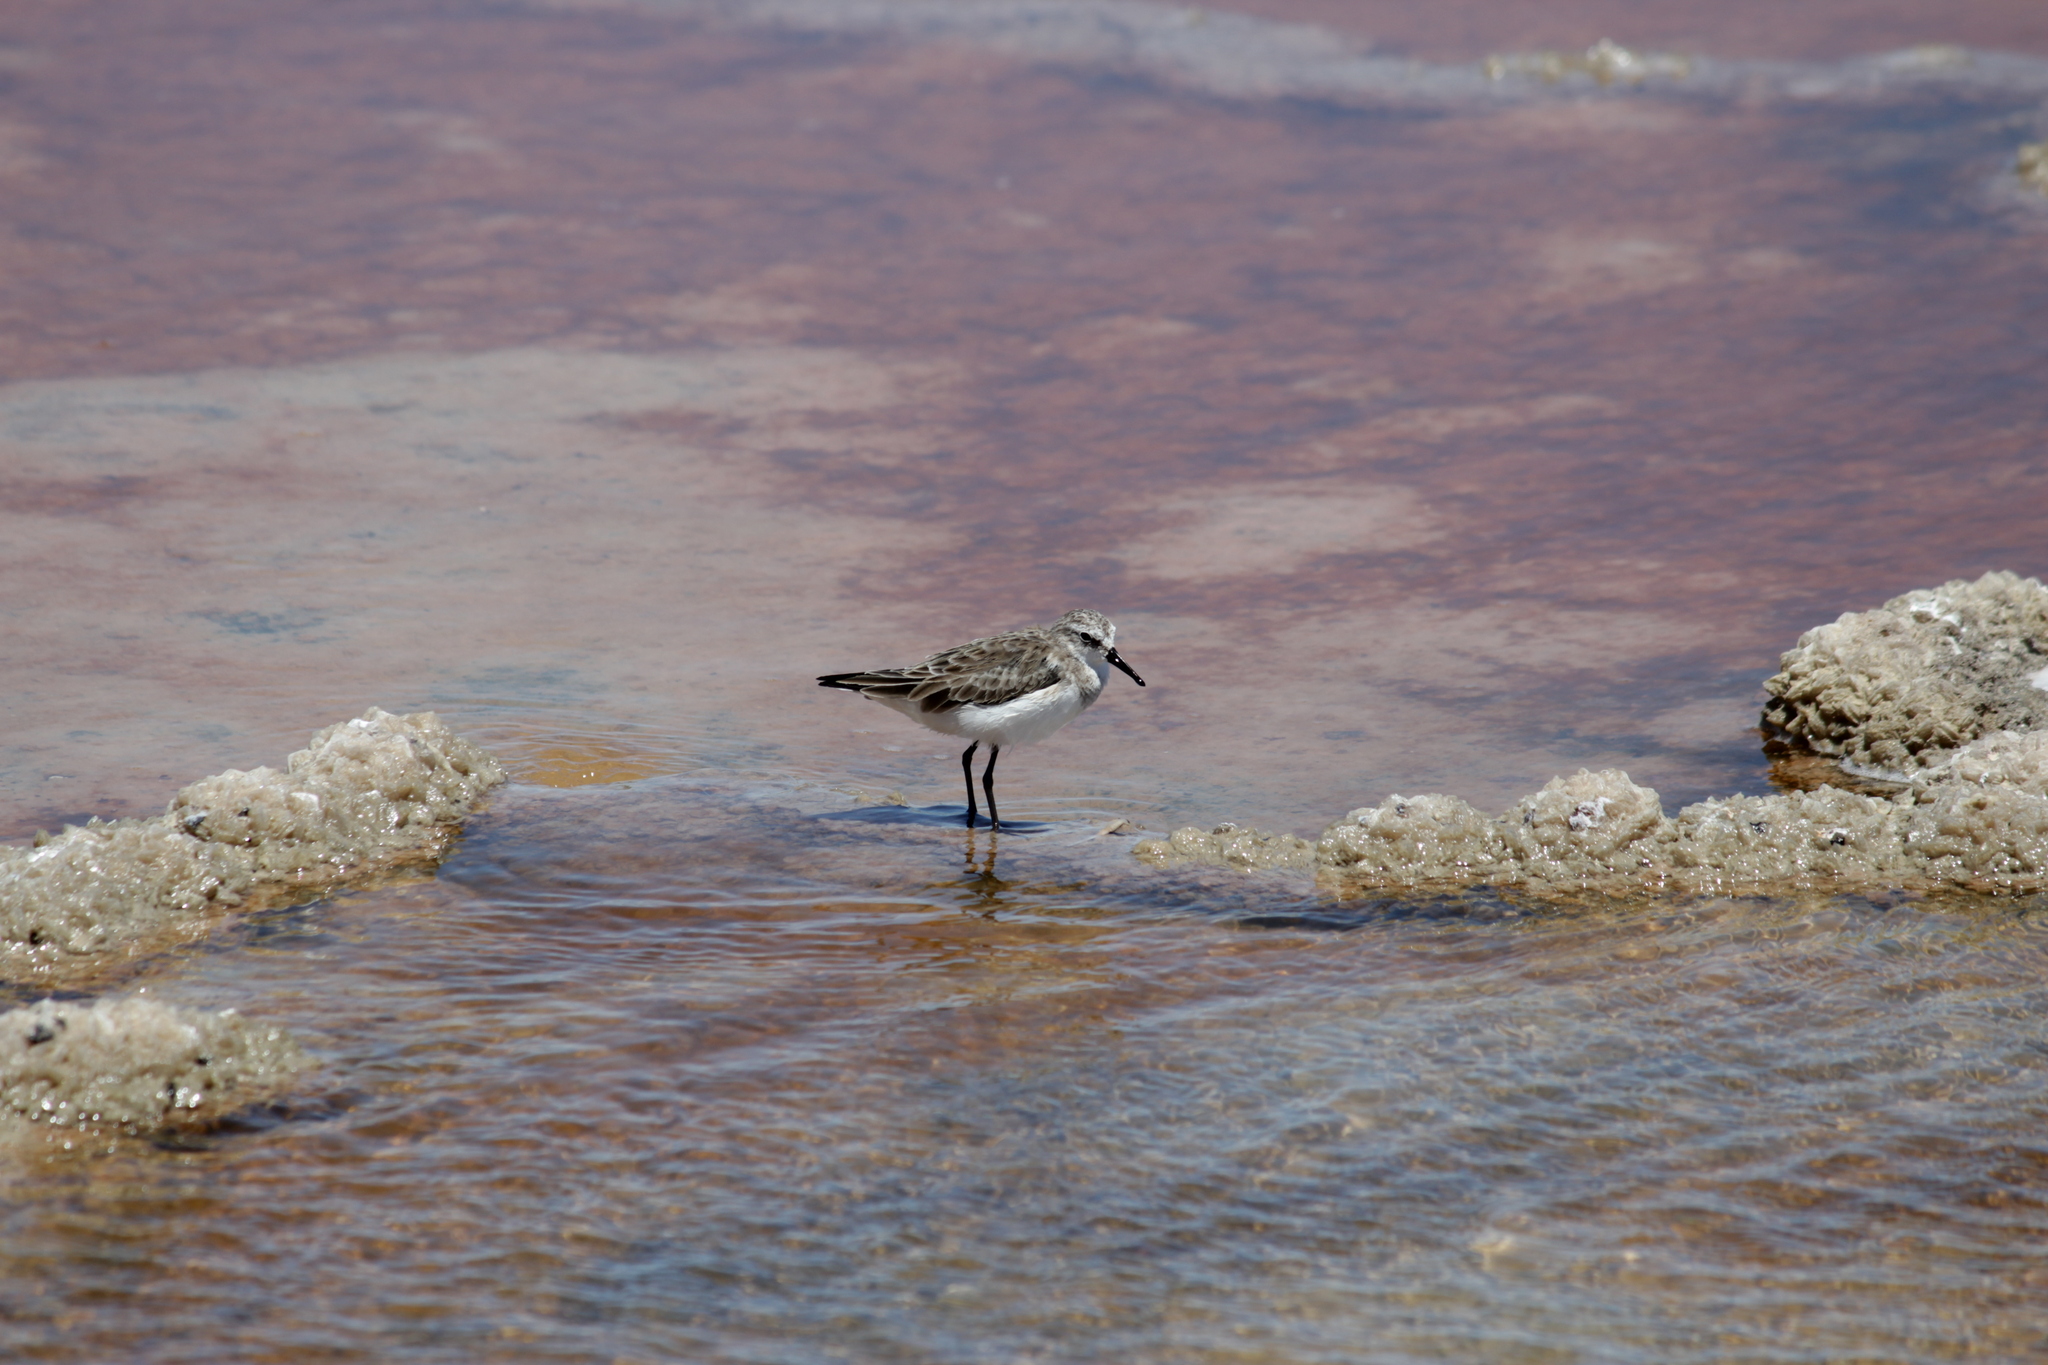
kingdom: Animalia
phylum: Chordata
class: Aves
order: Charadriiformes
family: Scolopacidae
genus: Calidris
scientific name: Calidris minuta
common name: Little stint
